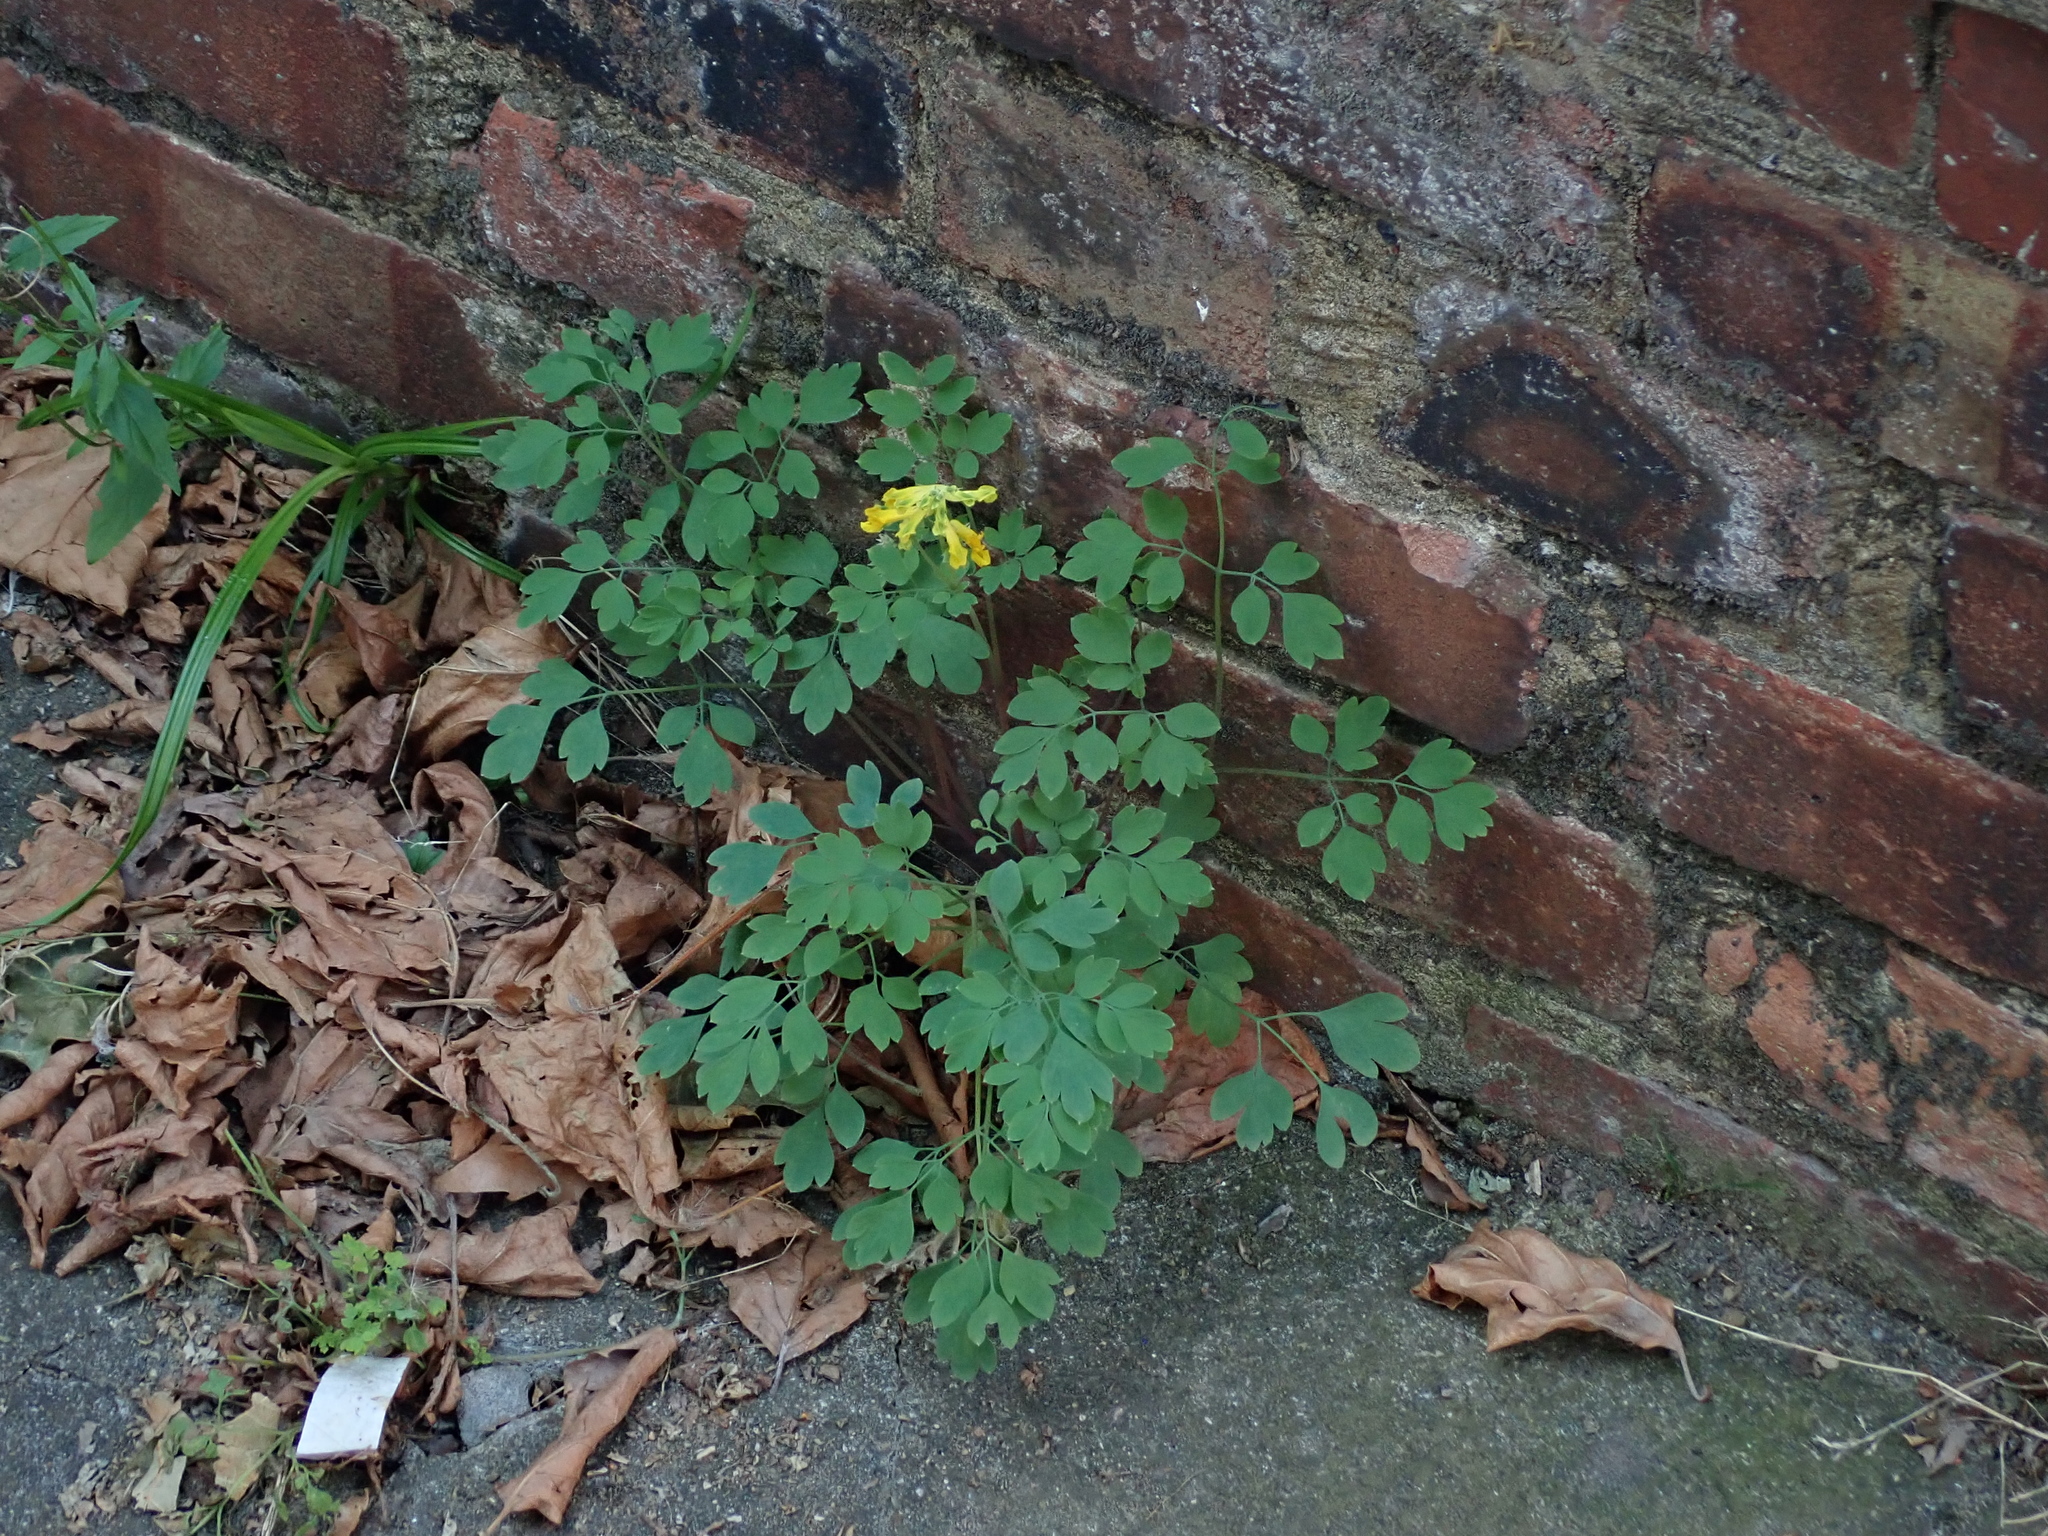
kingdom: Plantae
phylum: Tracheophyta
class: Magnoliopsida
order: Ranunculales
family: Papaveraceae
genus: Pseudofumaria
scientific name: Pseudofumaria lutea
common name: Yellow corydalis
